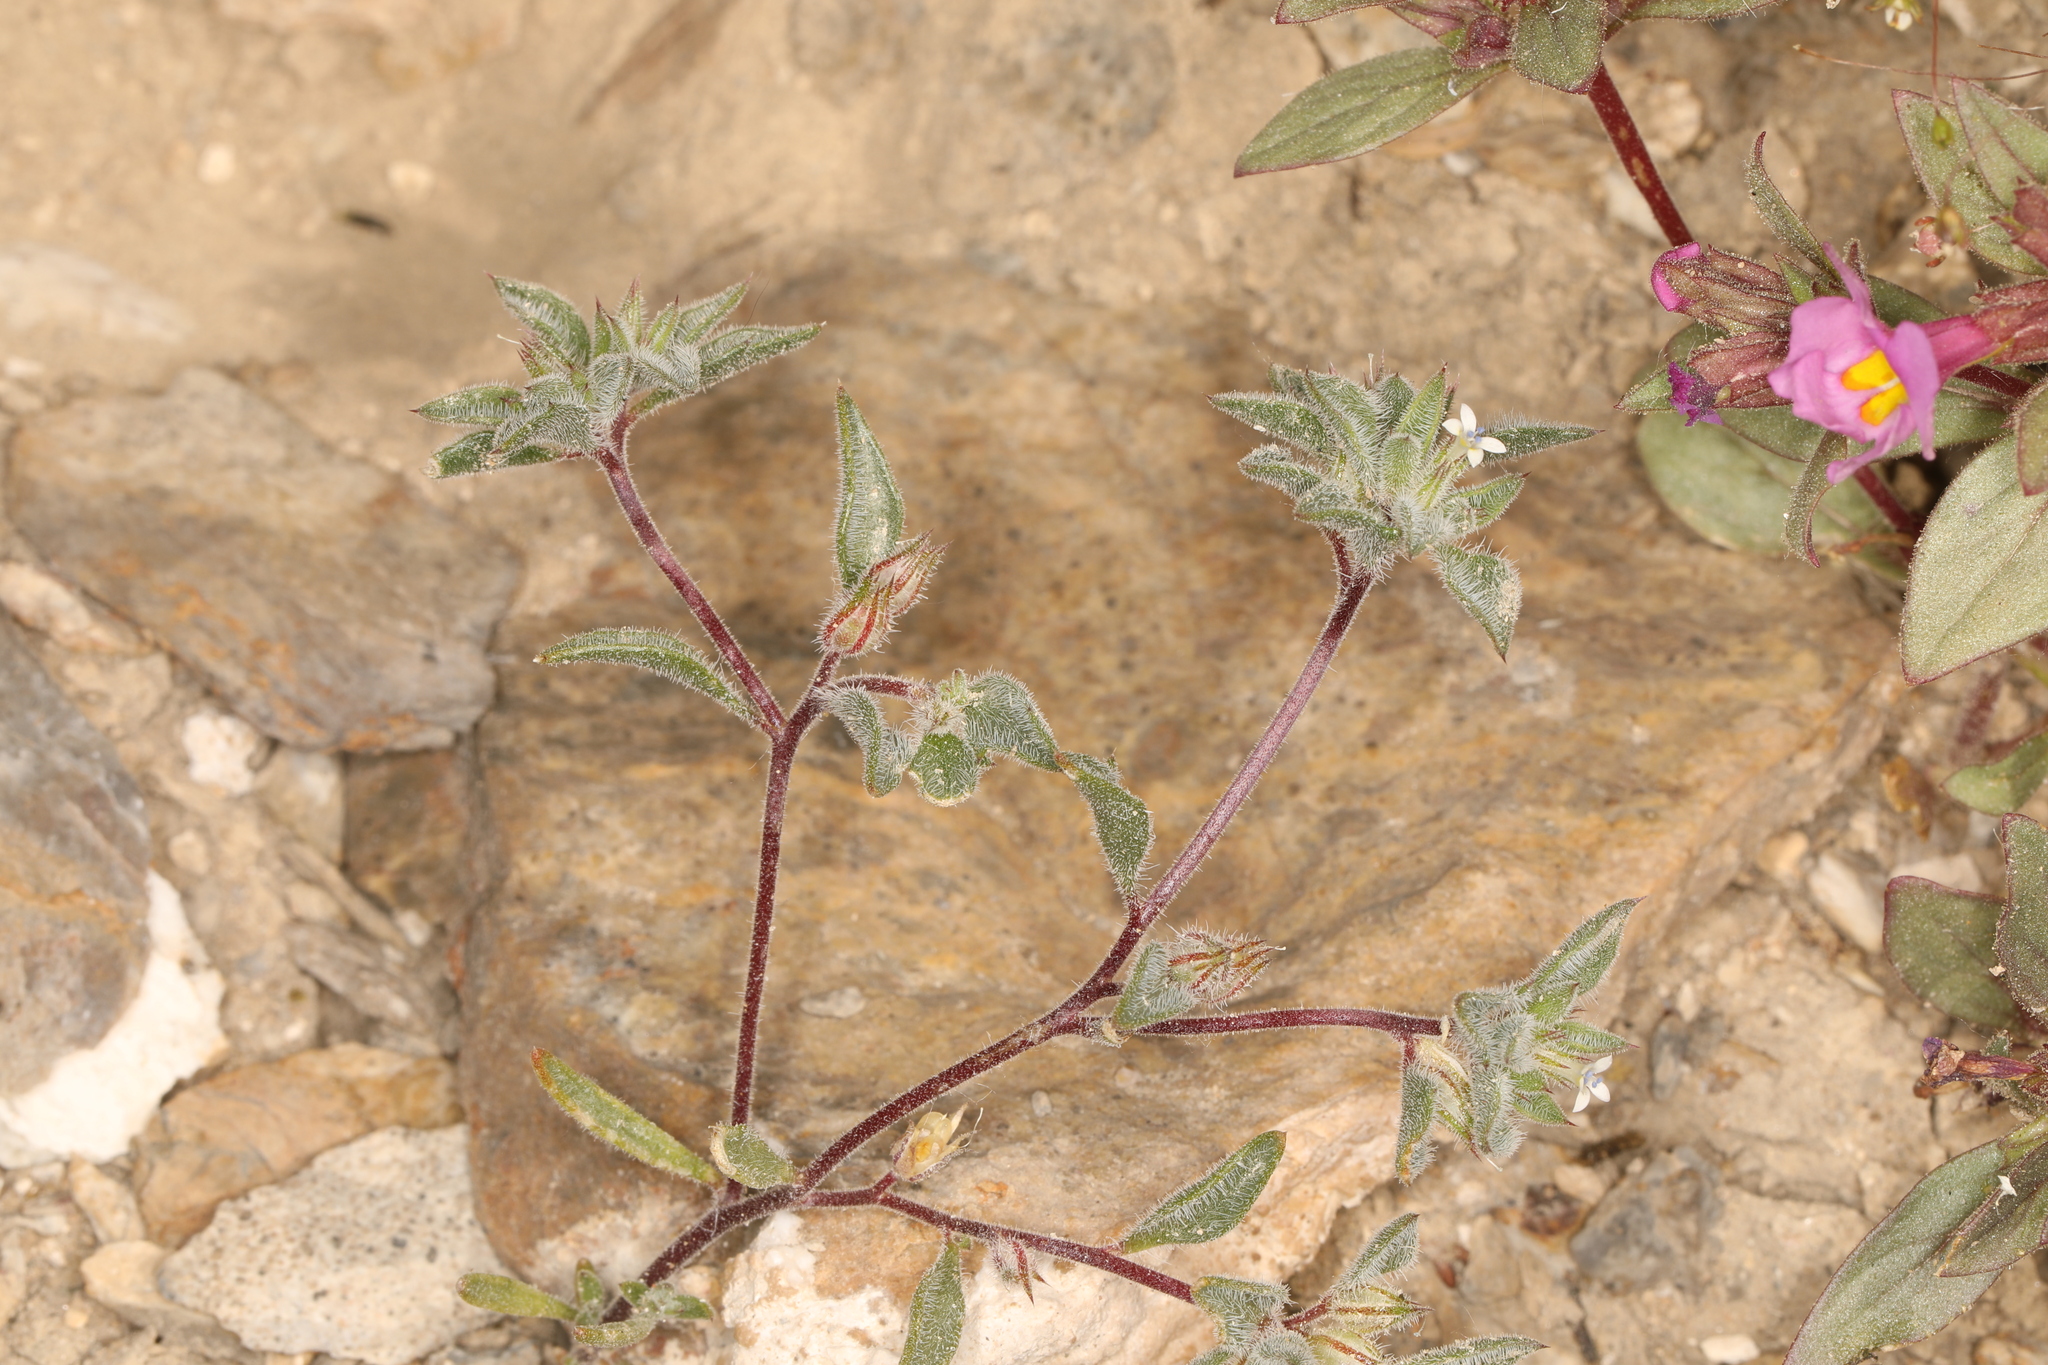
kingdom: Plantae
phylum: Tracheophyta
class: Magnoliopsida
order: Ericales
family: Polemoniaceae
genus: Loeseliastrum
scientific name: Loeseliastrum depressum
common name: Depressed ipomopsis
